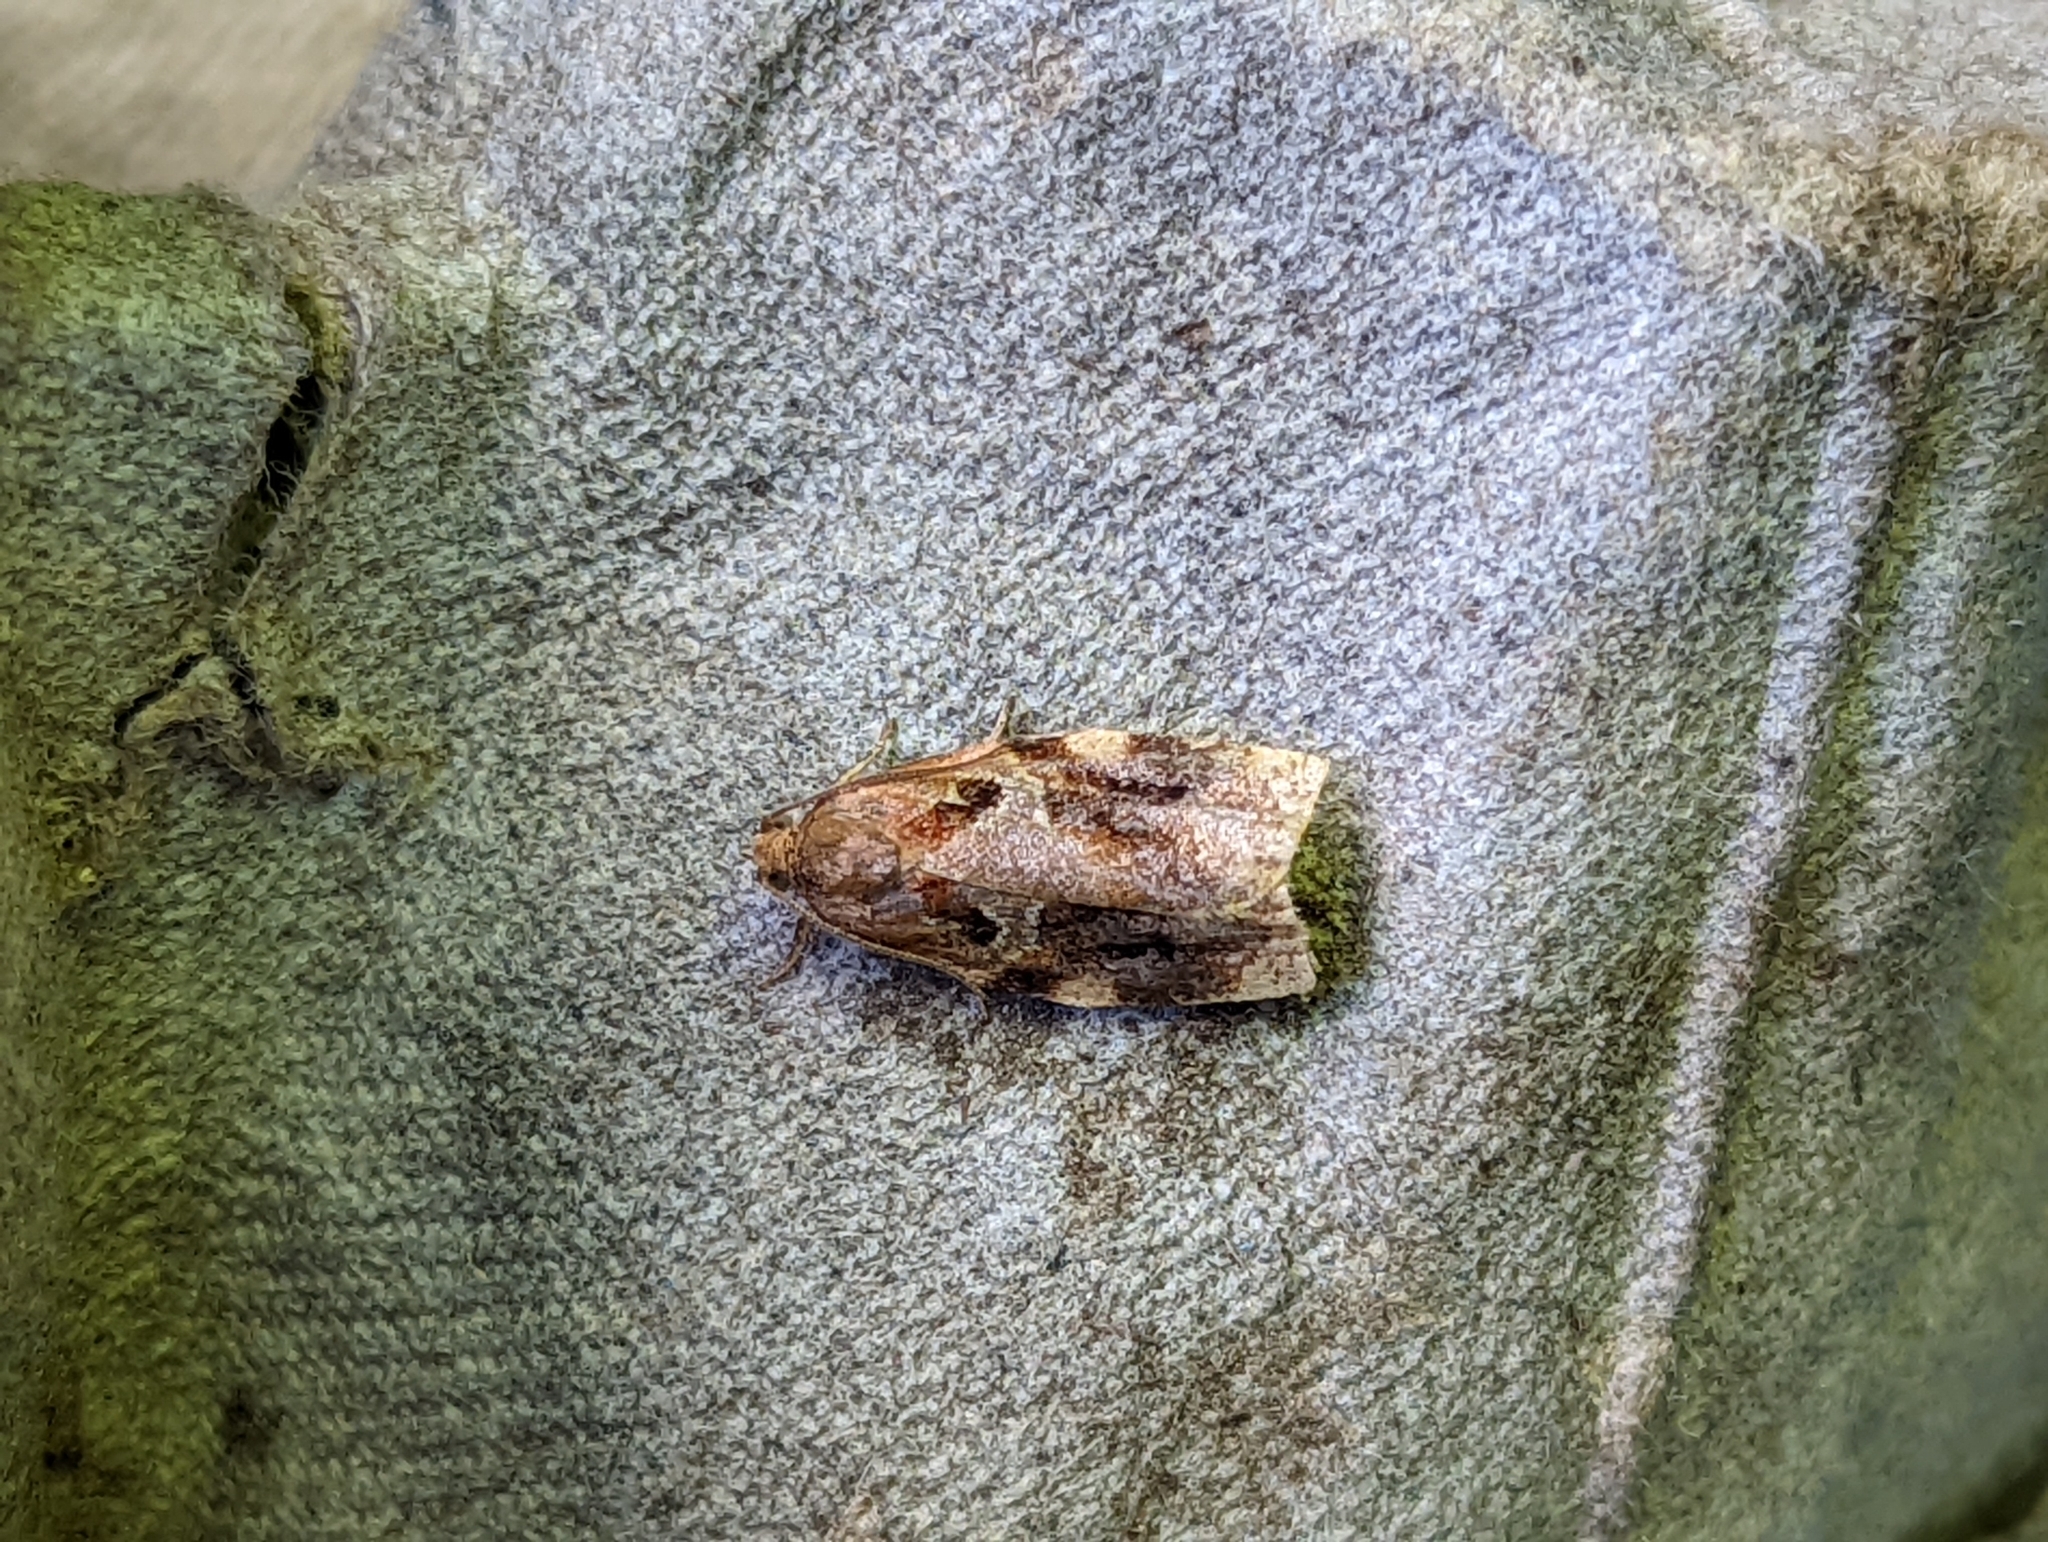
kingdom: Animalia
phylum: Arthropoda
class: Insecta
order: Lepidoptera
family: Tortricidae
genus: Archips
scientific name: Archips xylosteana
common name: Variegated golden tortrix
